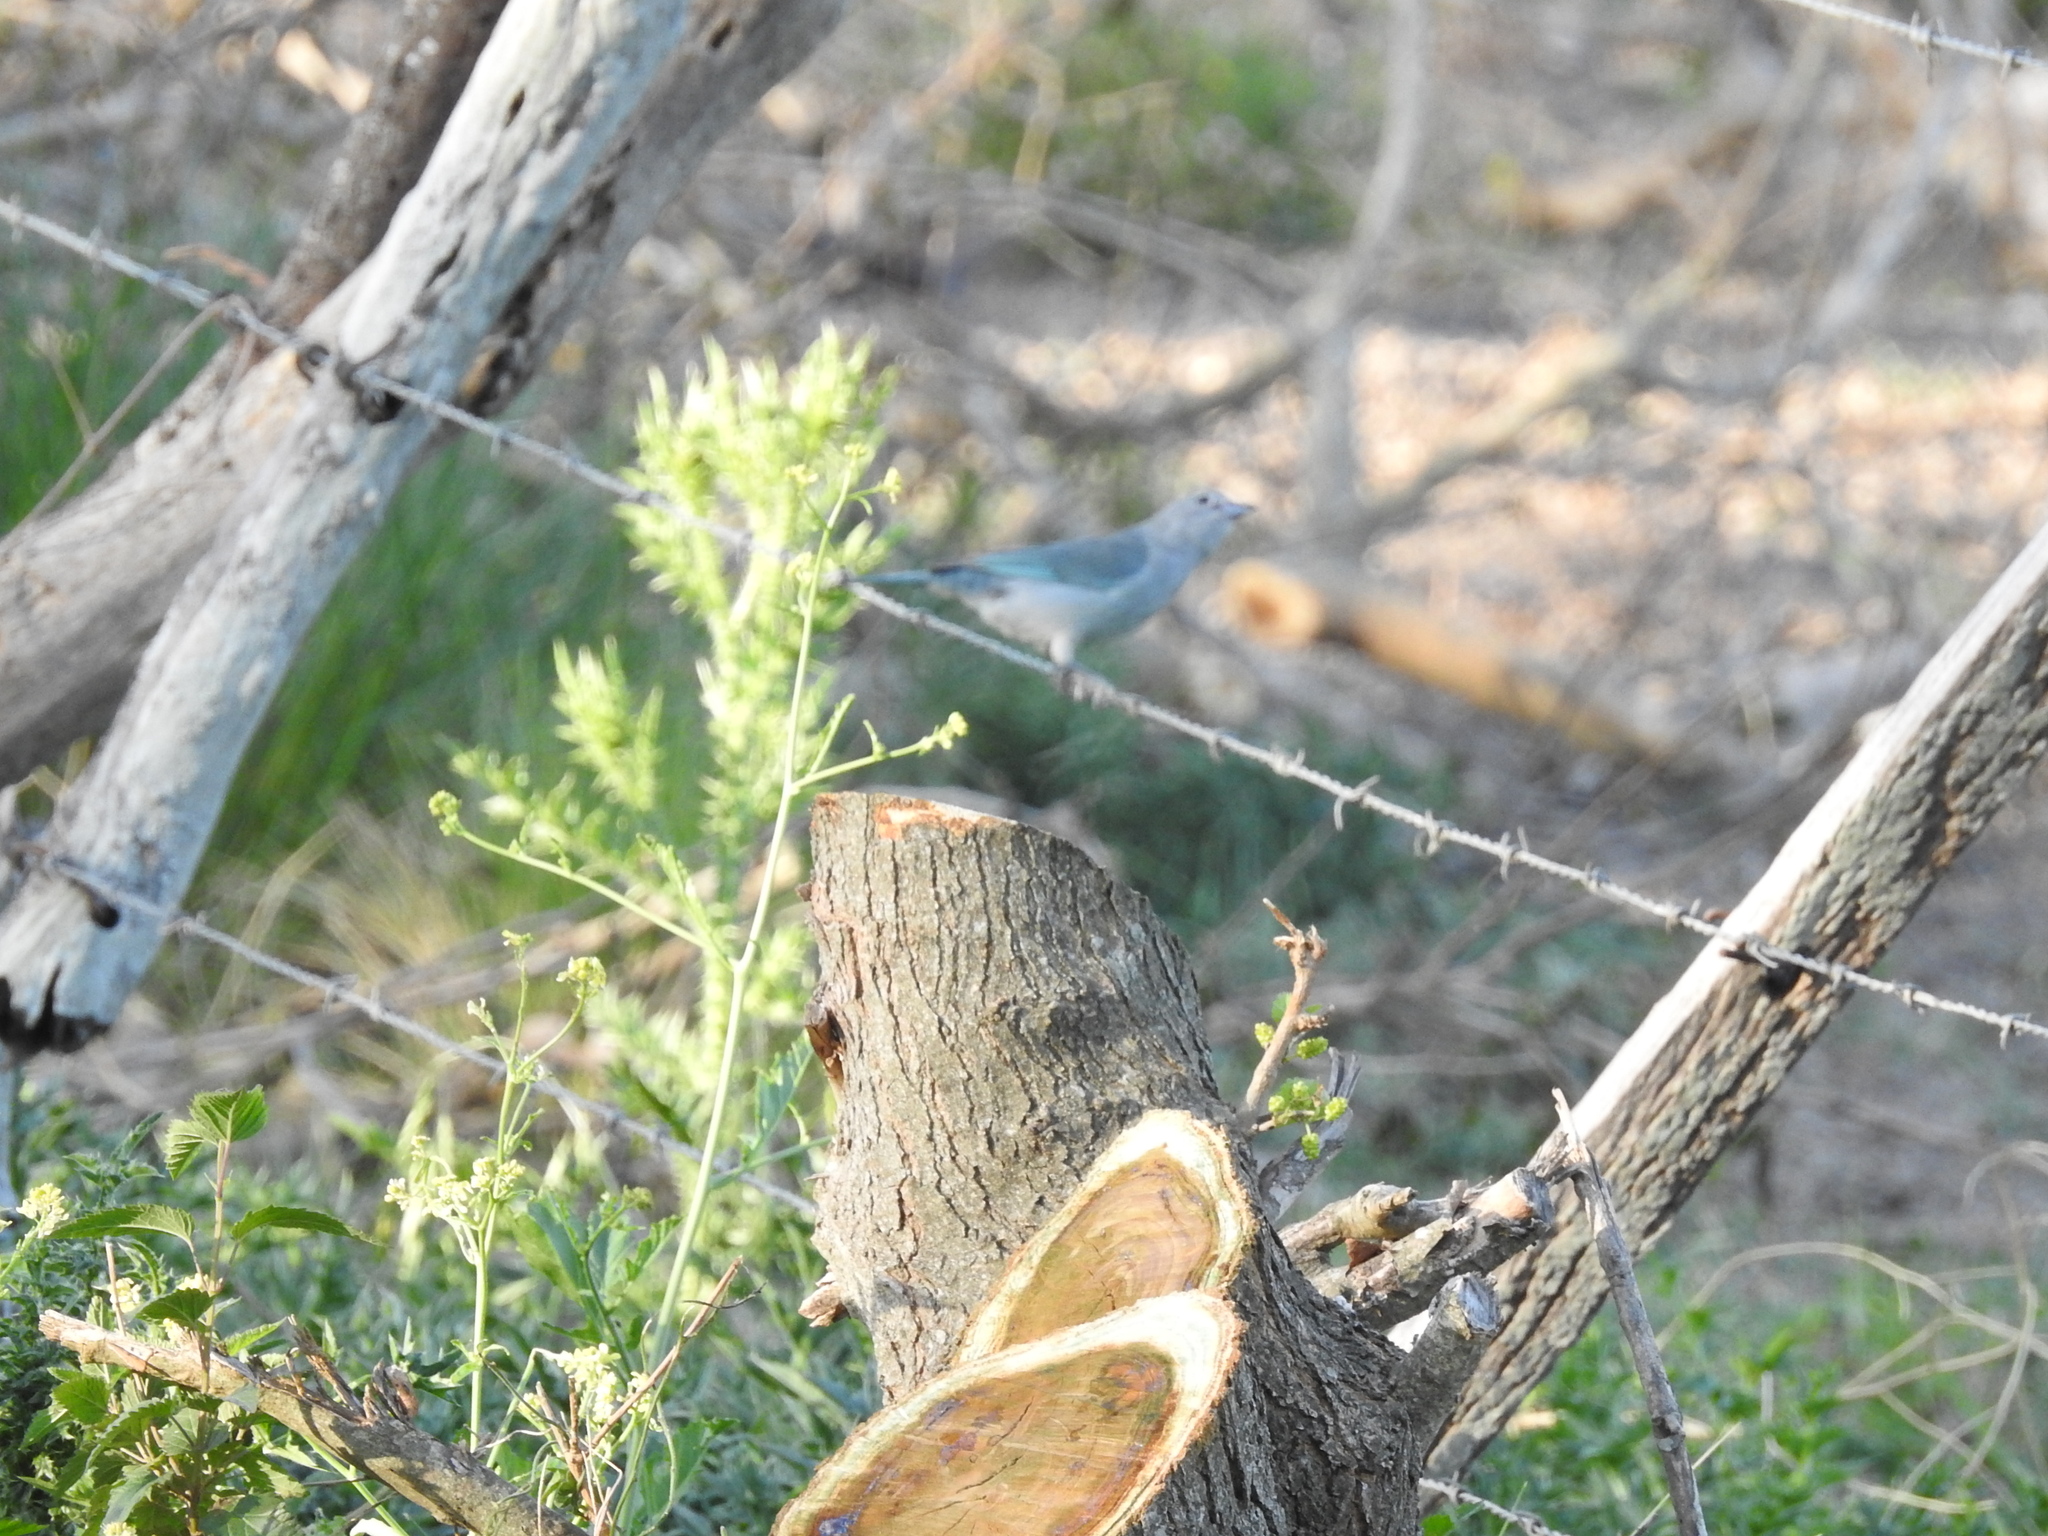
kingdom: Animalia
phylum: Chordata
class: Aves
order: Passeriformes
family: Thraupidae
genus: Thraupis
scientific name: Thraupis sayaca
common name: Sayaca tanager
